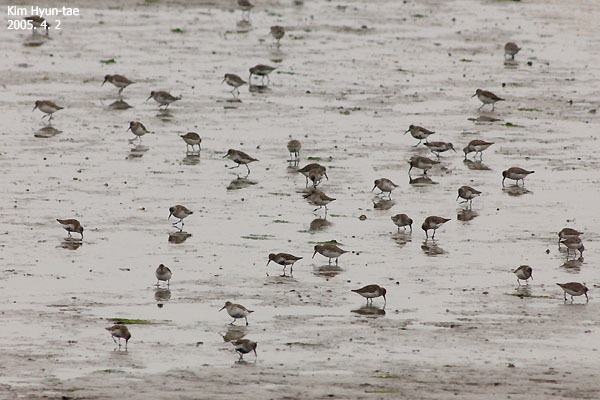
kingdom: Animalia
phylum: Chordata
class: Aves
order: Charadriiformes
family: Scolopacidae
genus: Calidris
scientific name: Calidris alpina
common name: Dunlin
